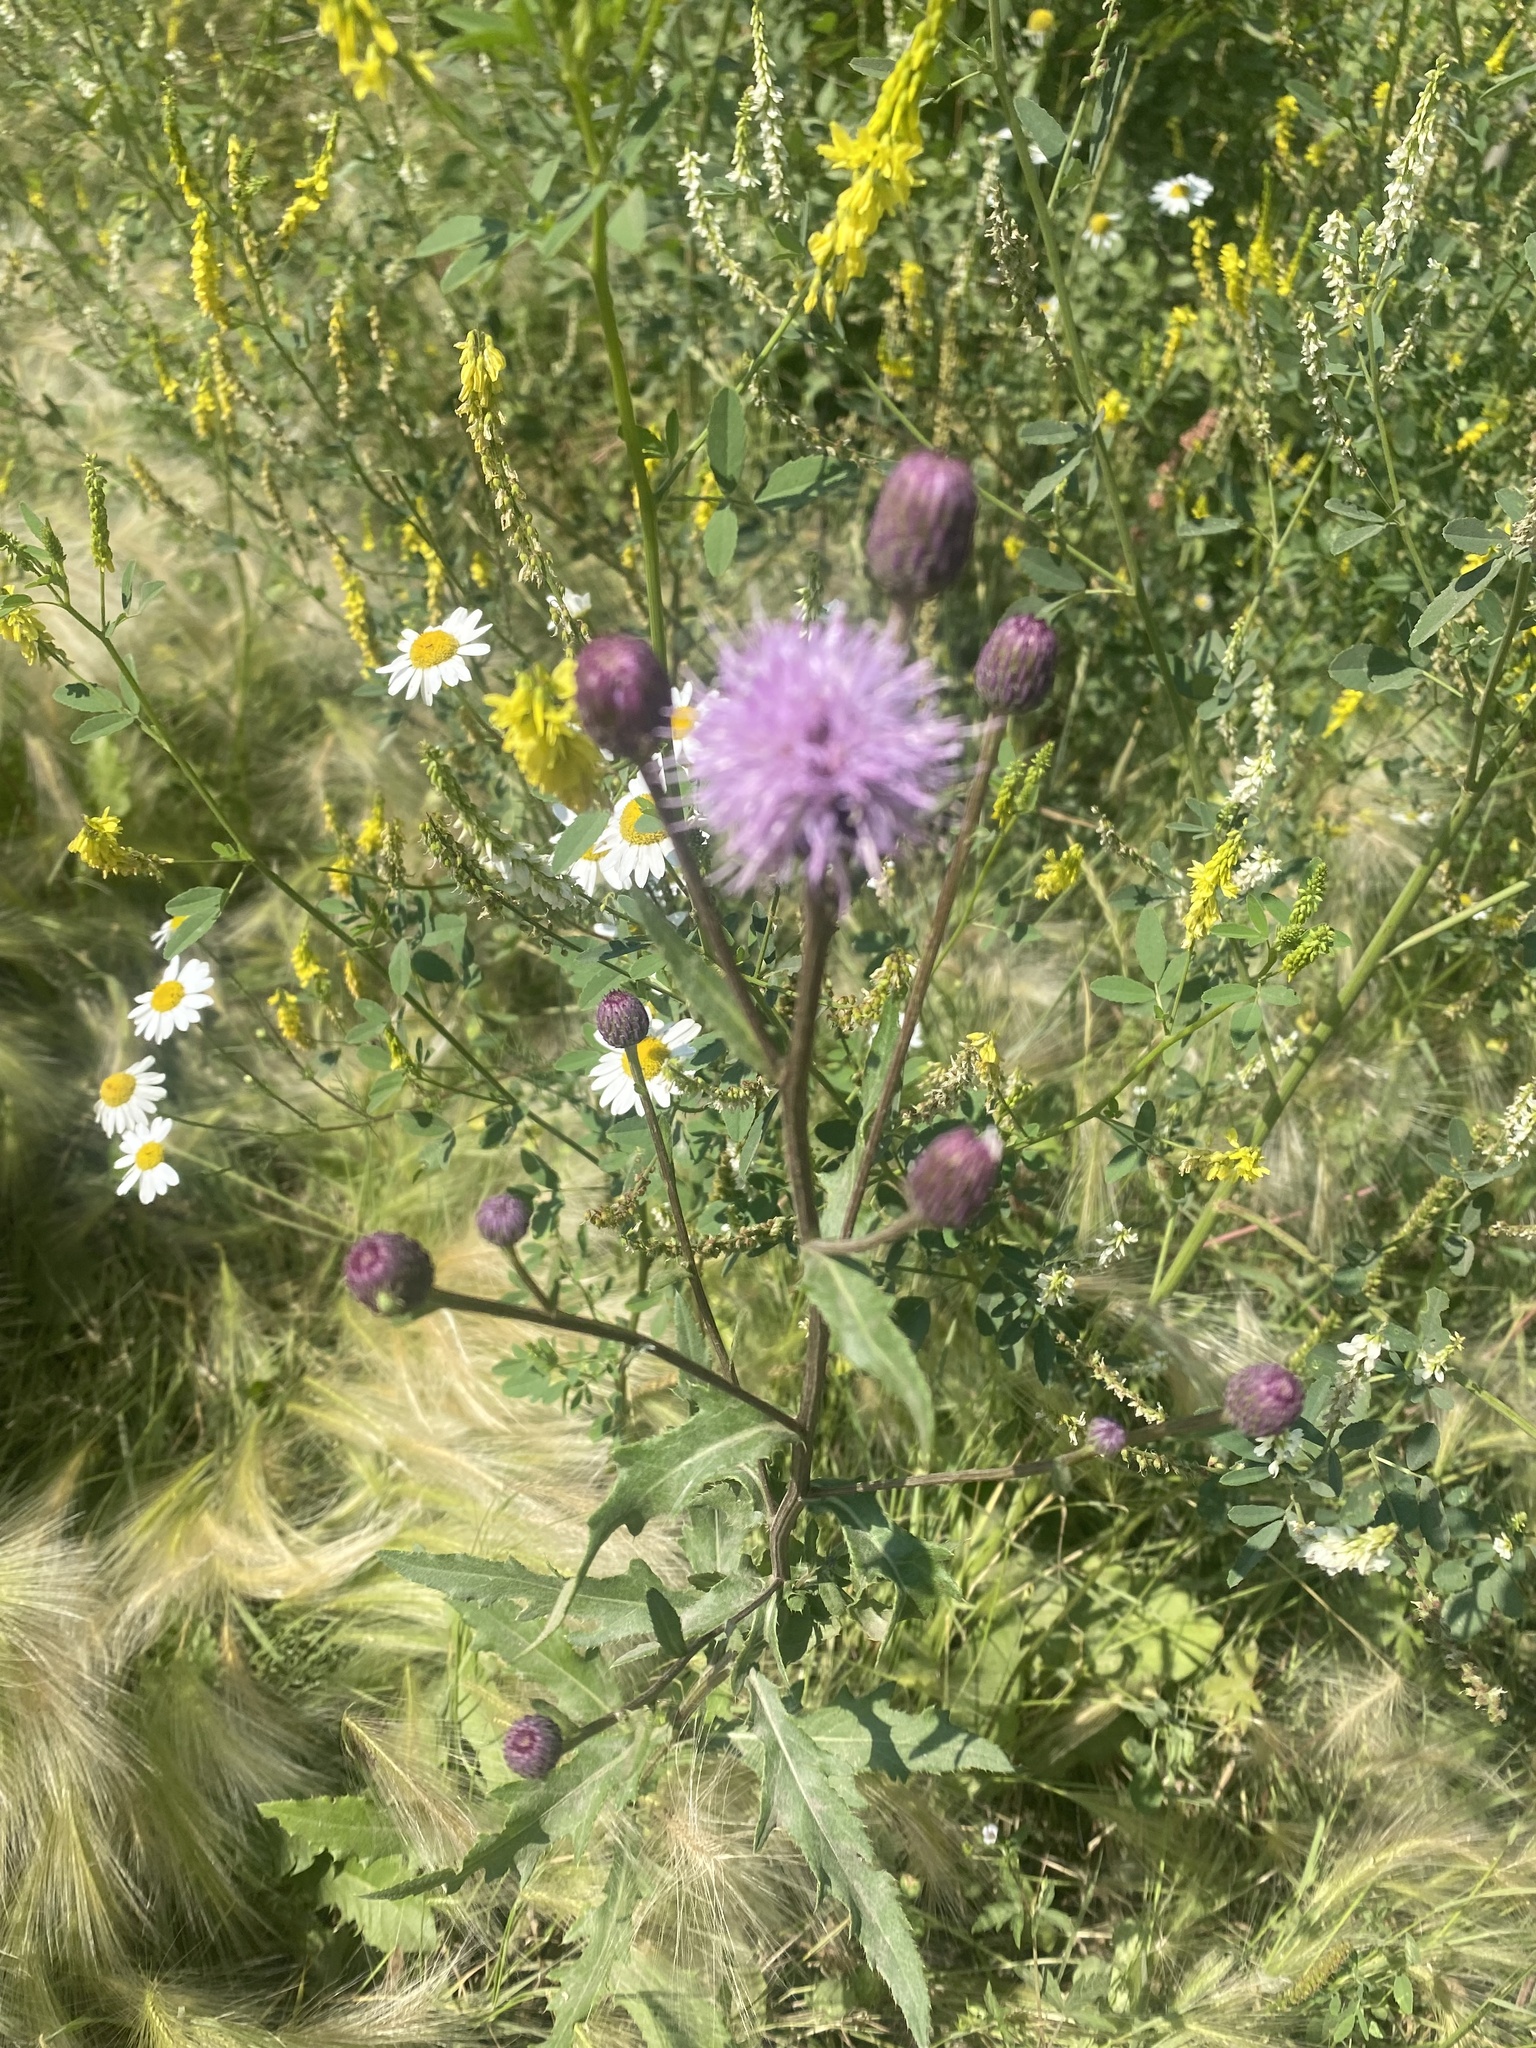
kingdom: Plantae
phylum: Tracheophyta
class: Magnoliopsida
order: Asterales
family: Asteraceae
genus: Cirsium
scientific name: Cirsium arvense
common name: Creeping thistle
